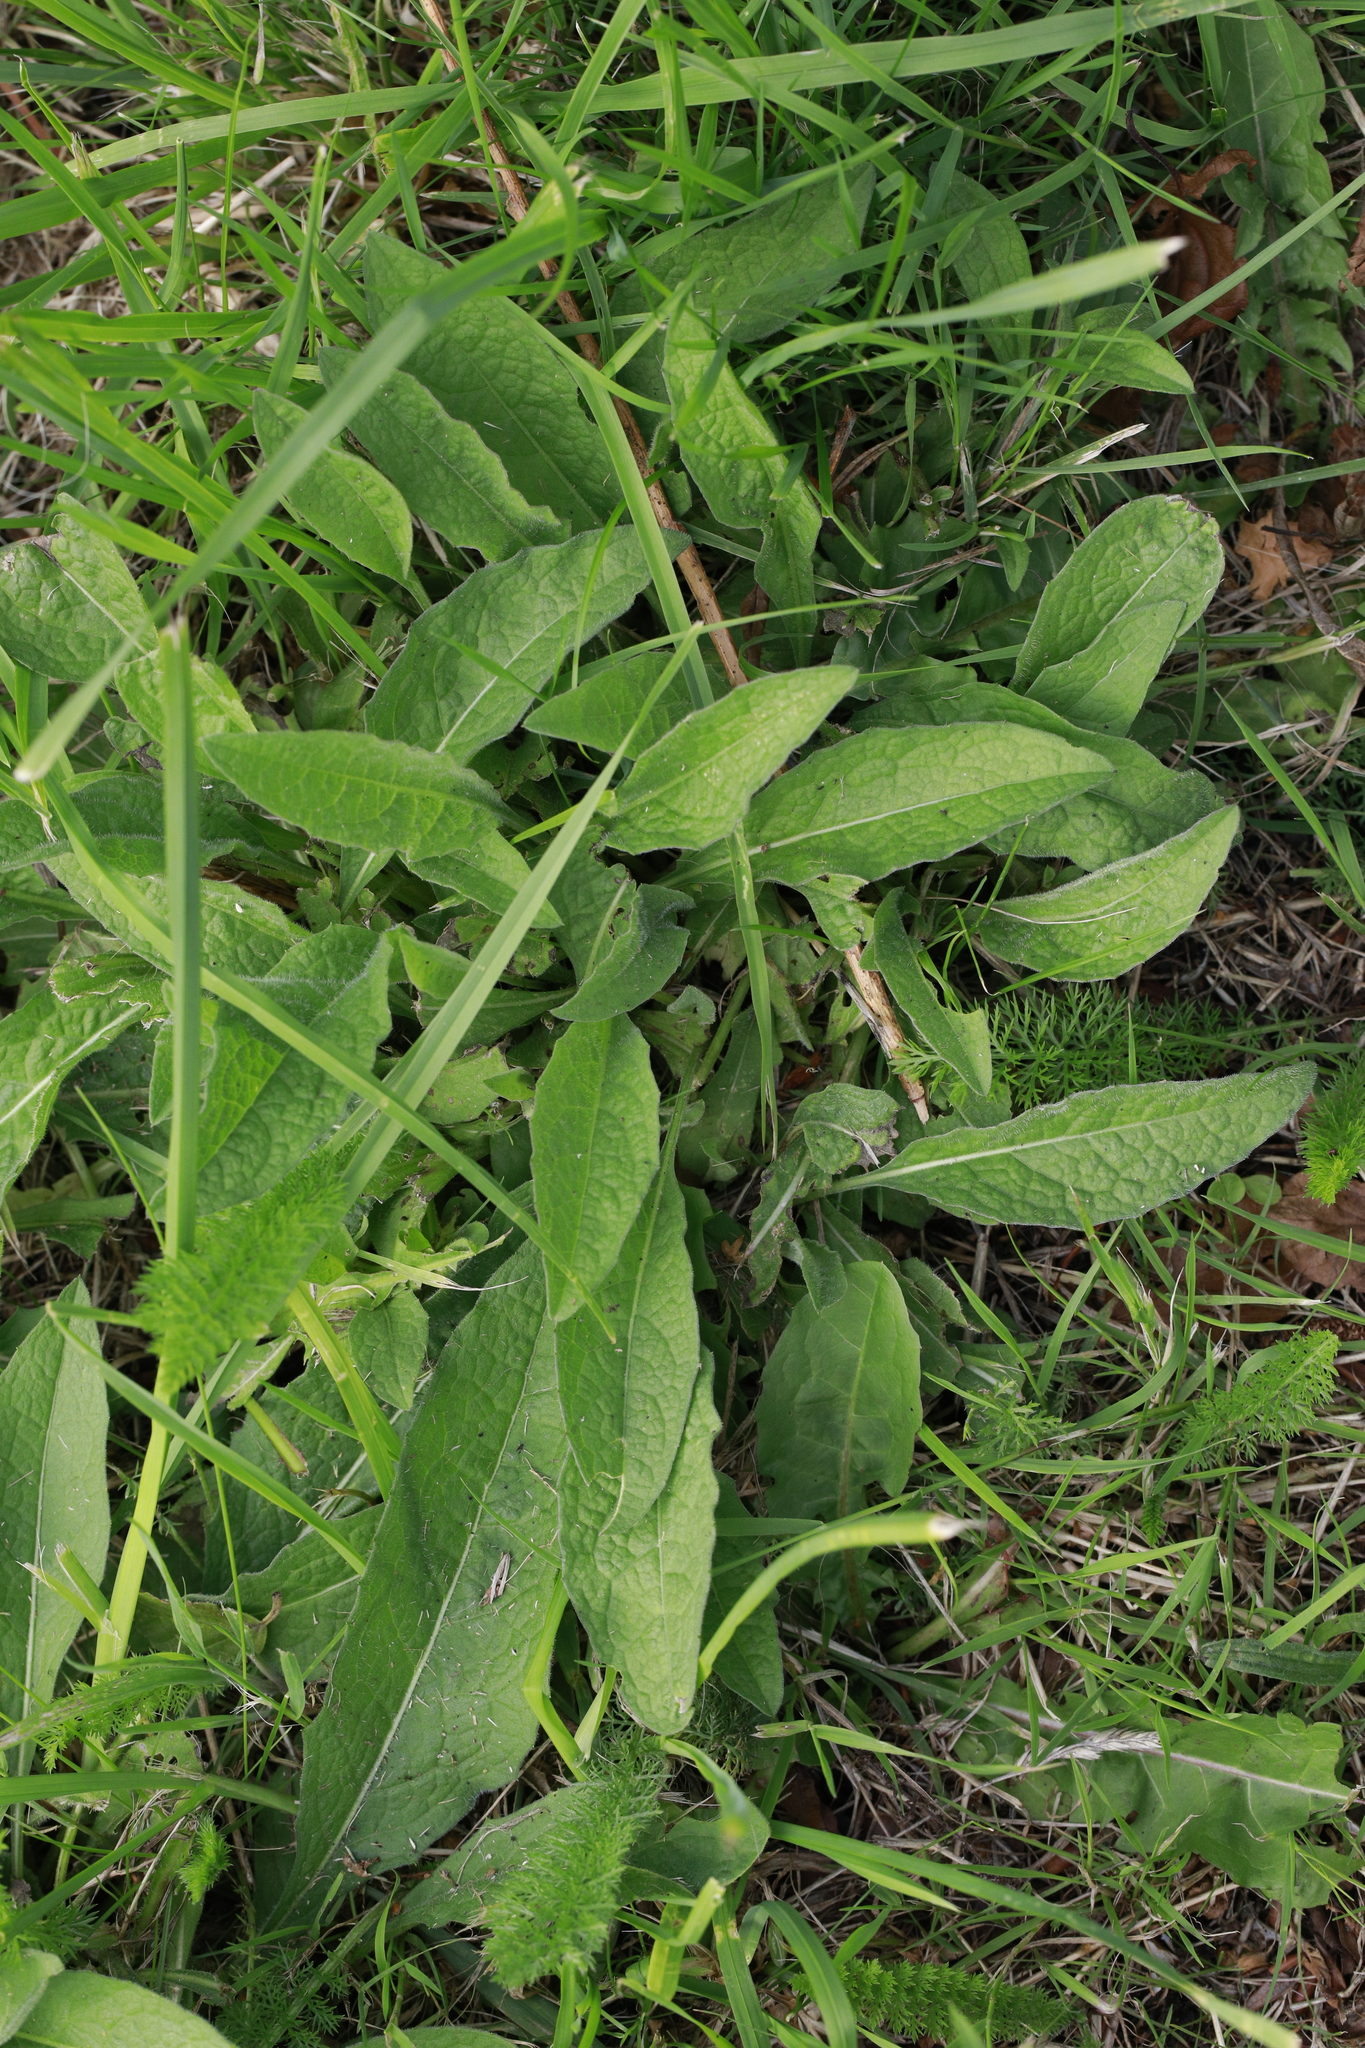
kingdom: Plantae
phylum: Tracheophyta
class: Magnoliopsida
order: Asterales
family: Asteraceae
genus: Centaurea
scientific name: Centaurea nigra
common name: Lesser knapweed
